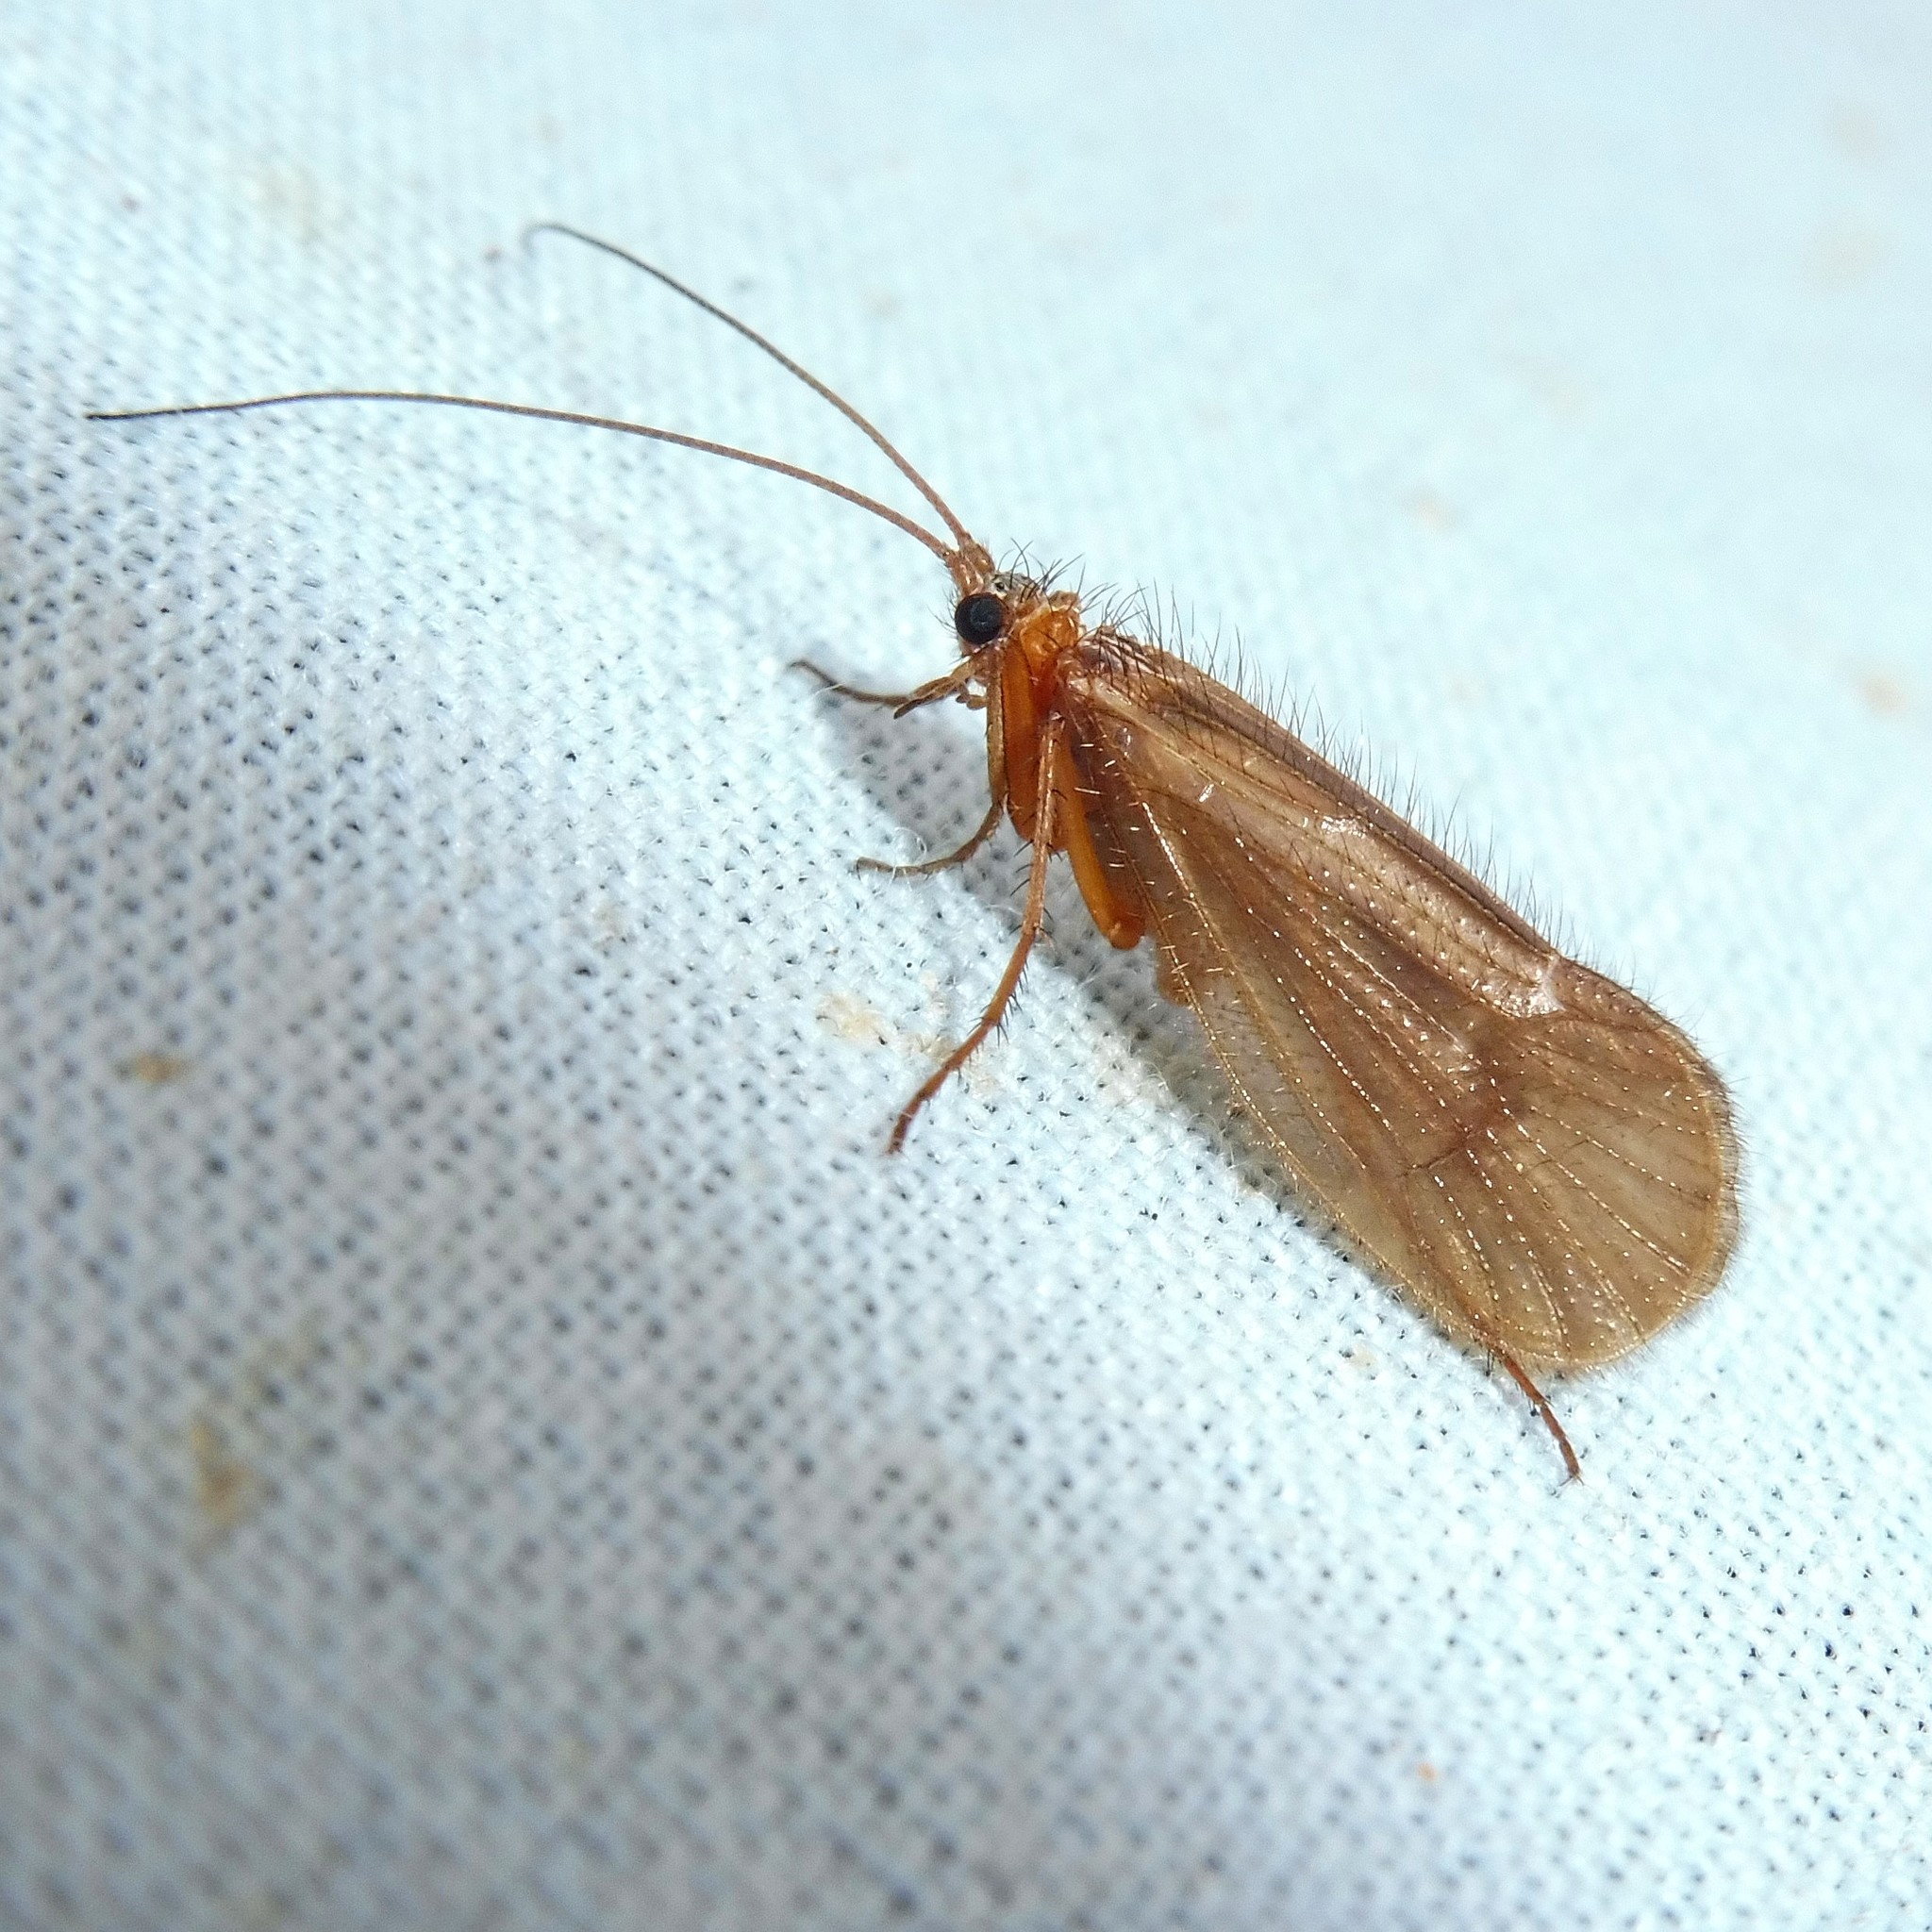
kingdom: Animalia
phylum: Arthropoda
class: Insecta
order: Trichoptera
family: Limnephilidae
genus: Chaetopteryx
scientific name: Chaetopteryx villosa
